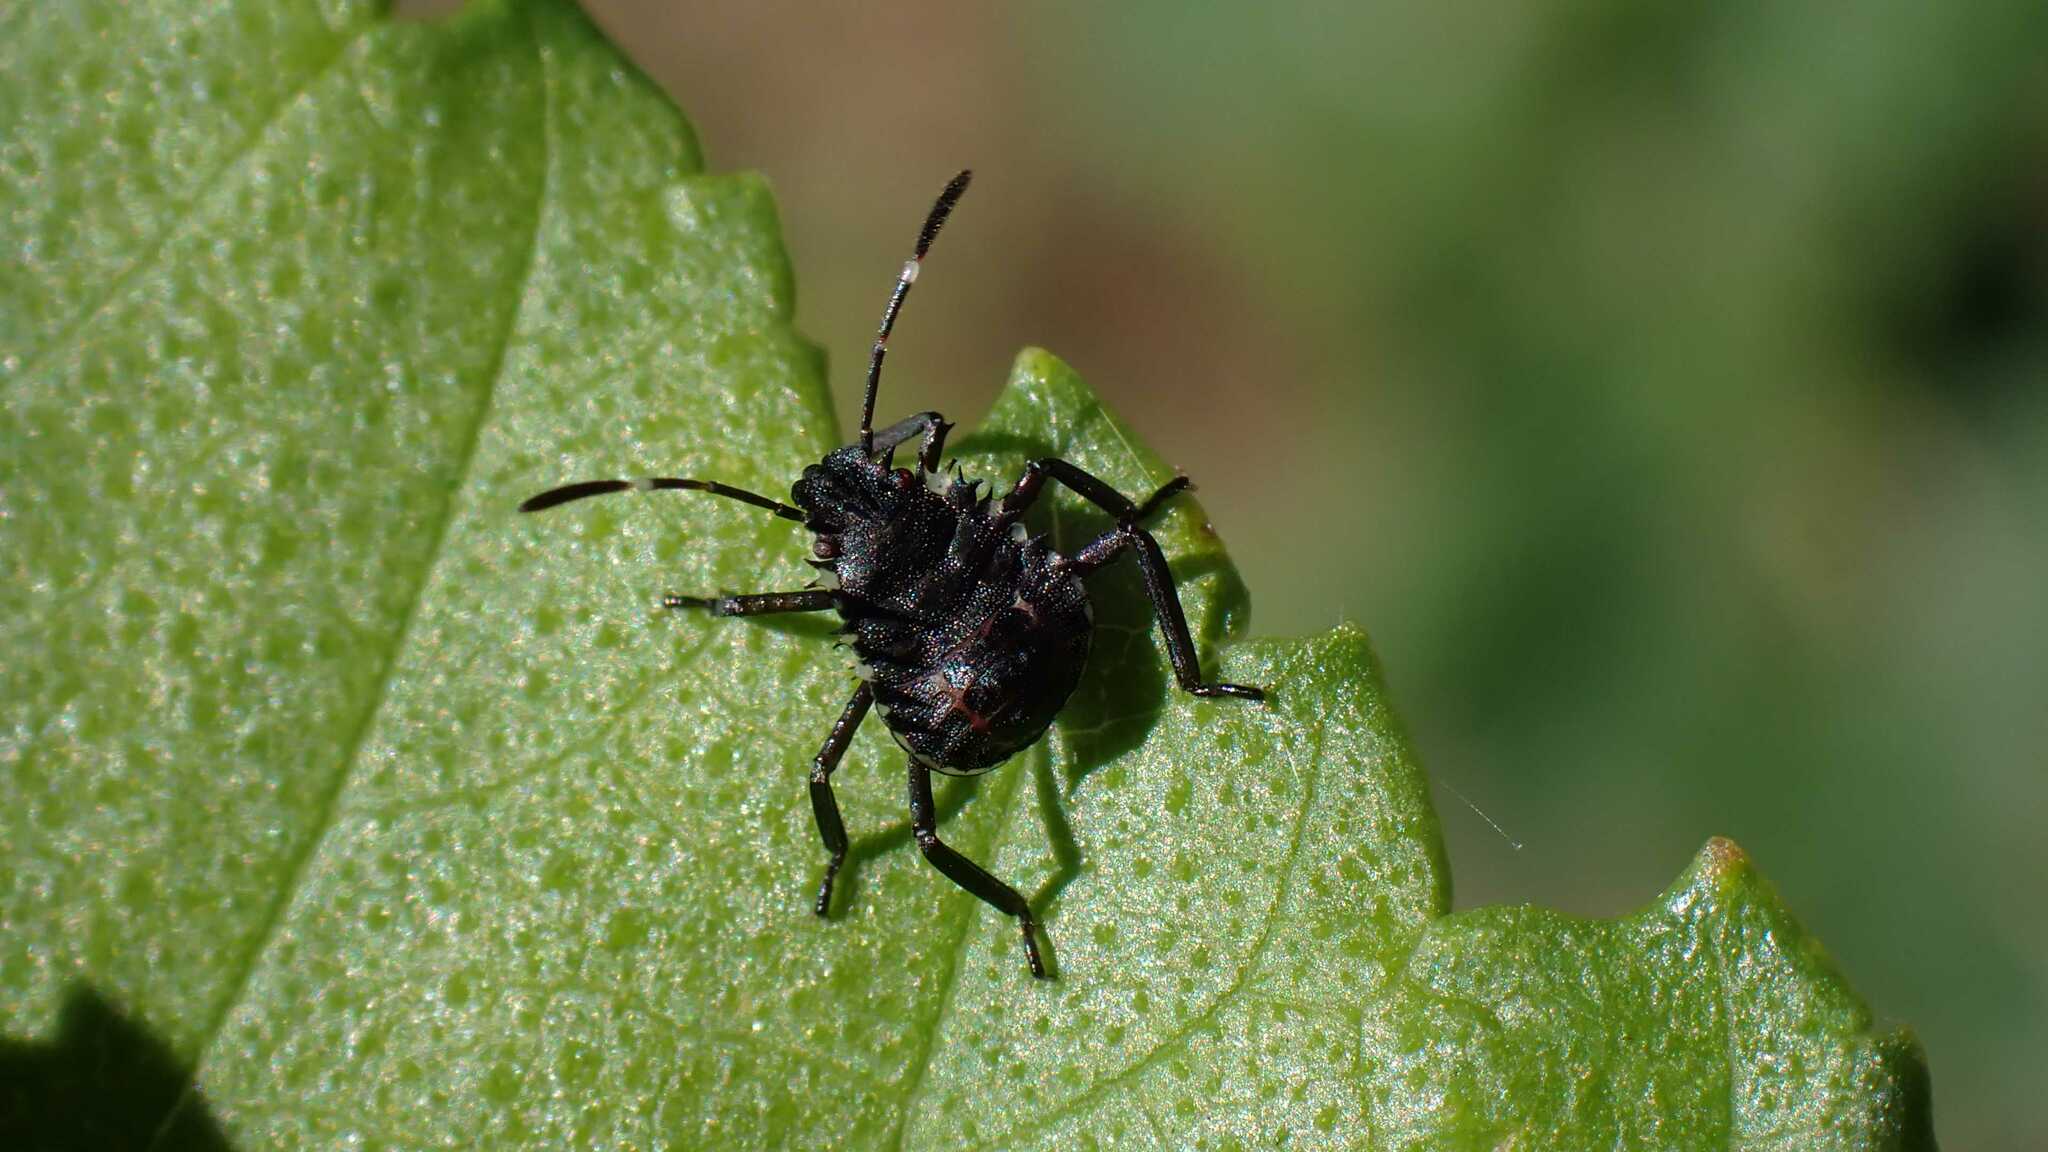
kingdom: Animalia
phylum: Arthropoda
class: Insecta
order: Hemiptera
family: Pentatomidae
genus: Halyomorpha
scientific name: Halyomorpha halys
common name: Brown marmorated stink bug
